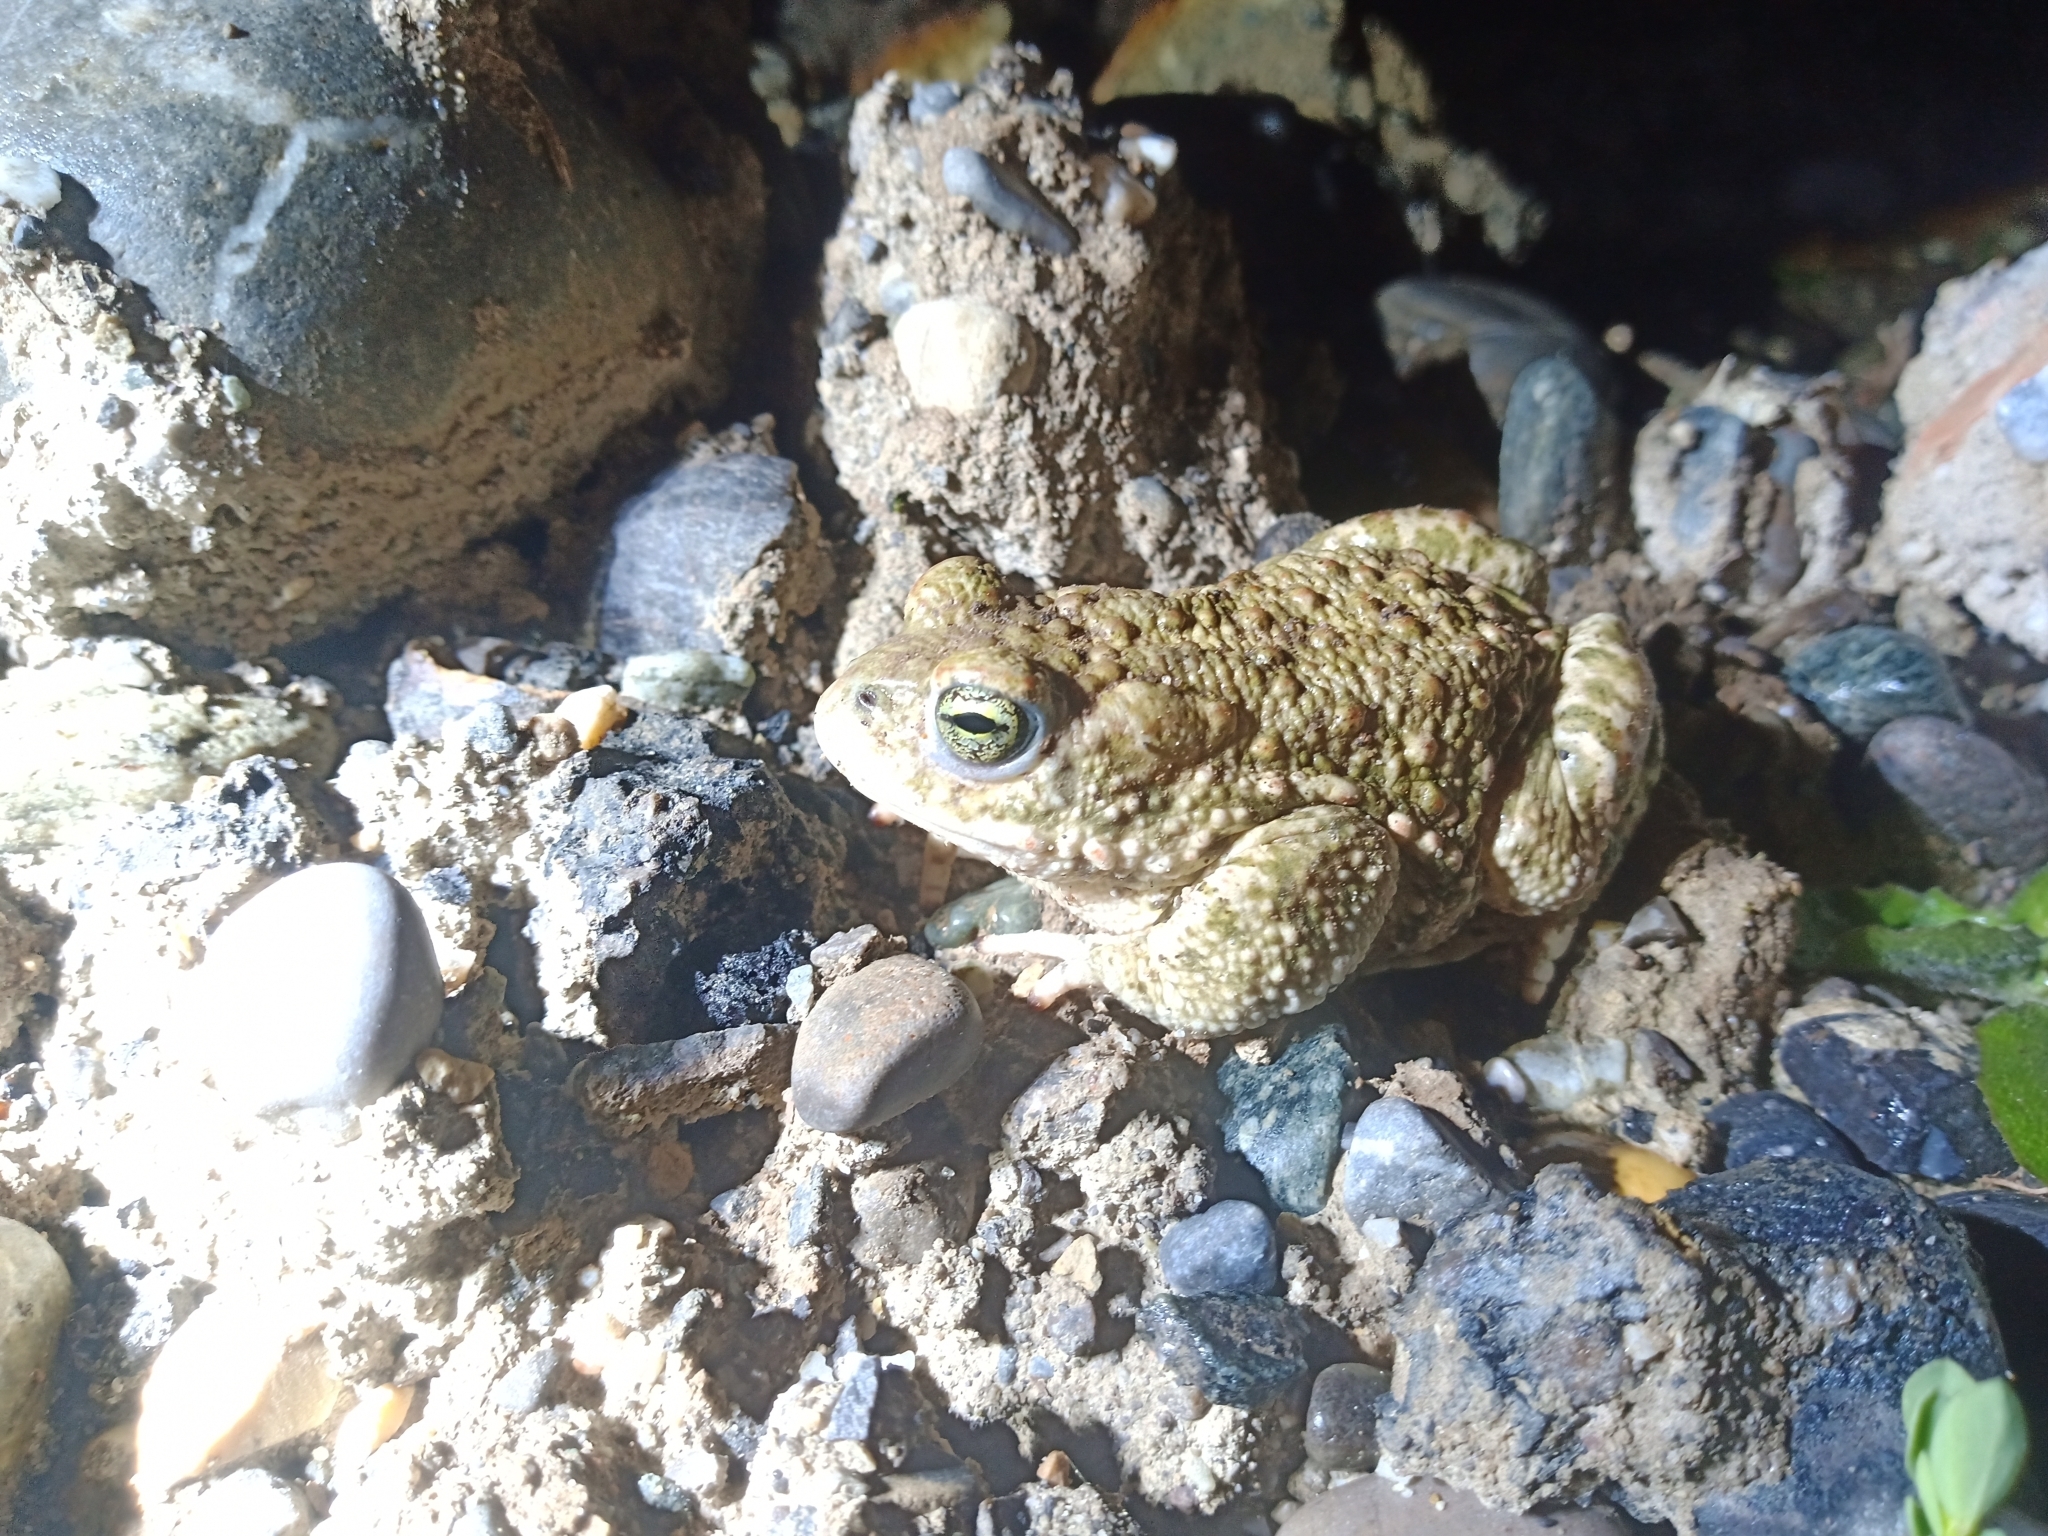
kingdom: Animalia
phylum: Chordata
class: Amphibia
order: Anura
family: Bufonidae
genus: Epidalea
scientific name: Epidalea calamita
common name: Natterjack toad
